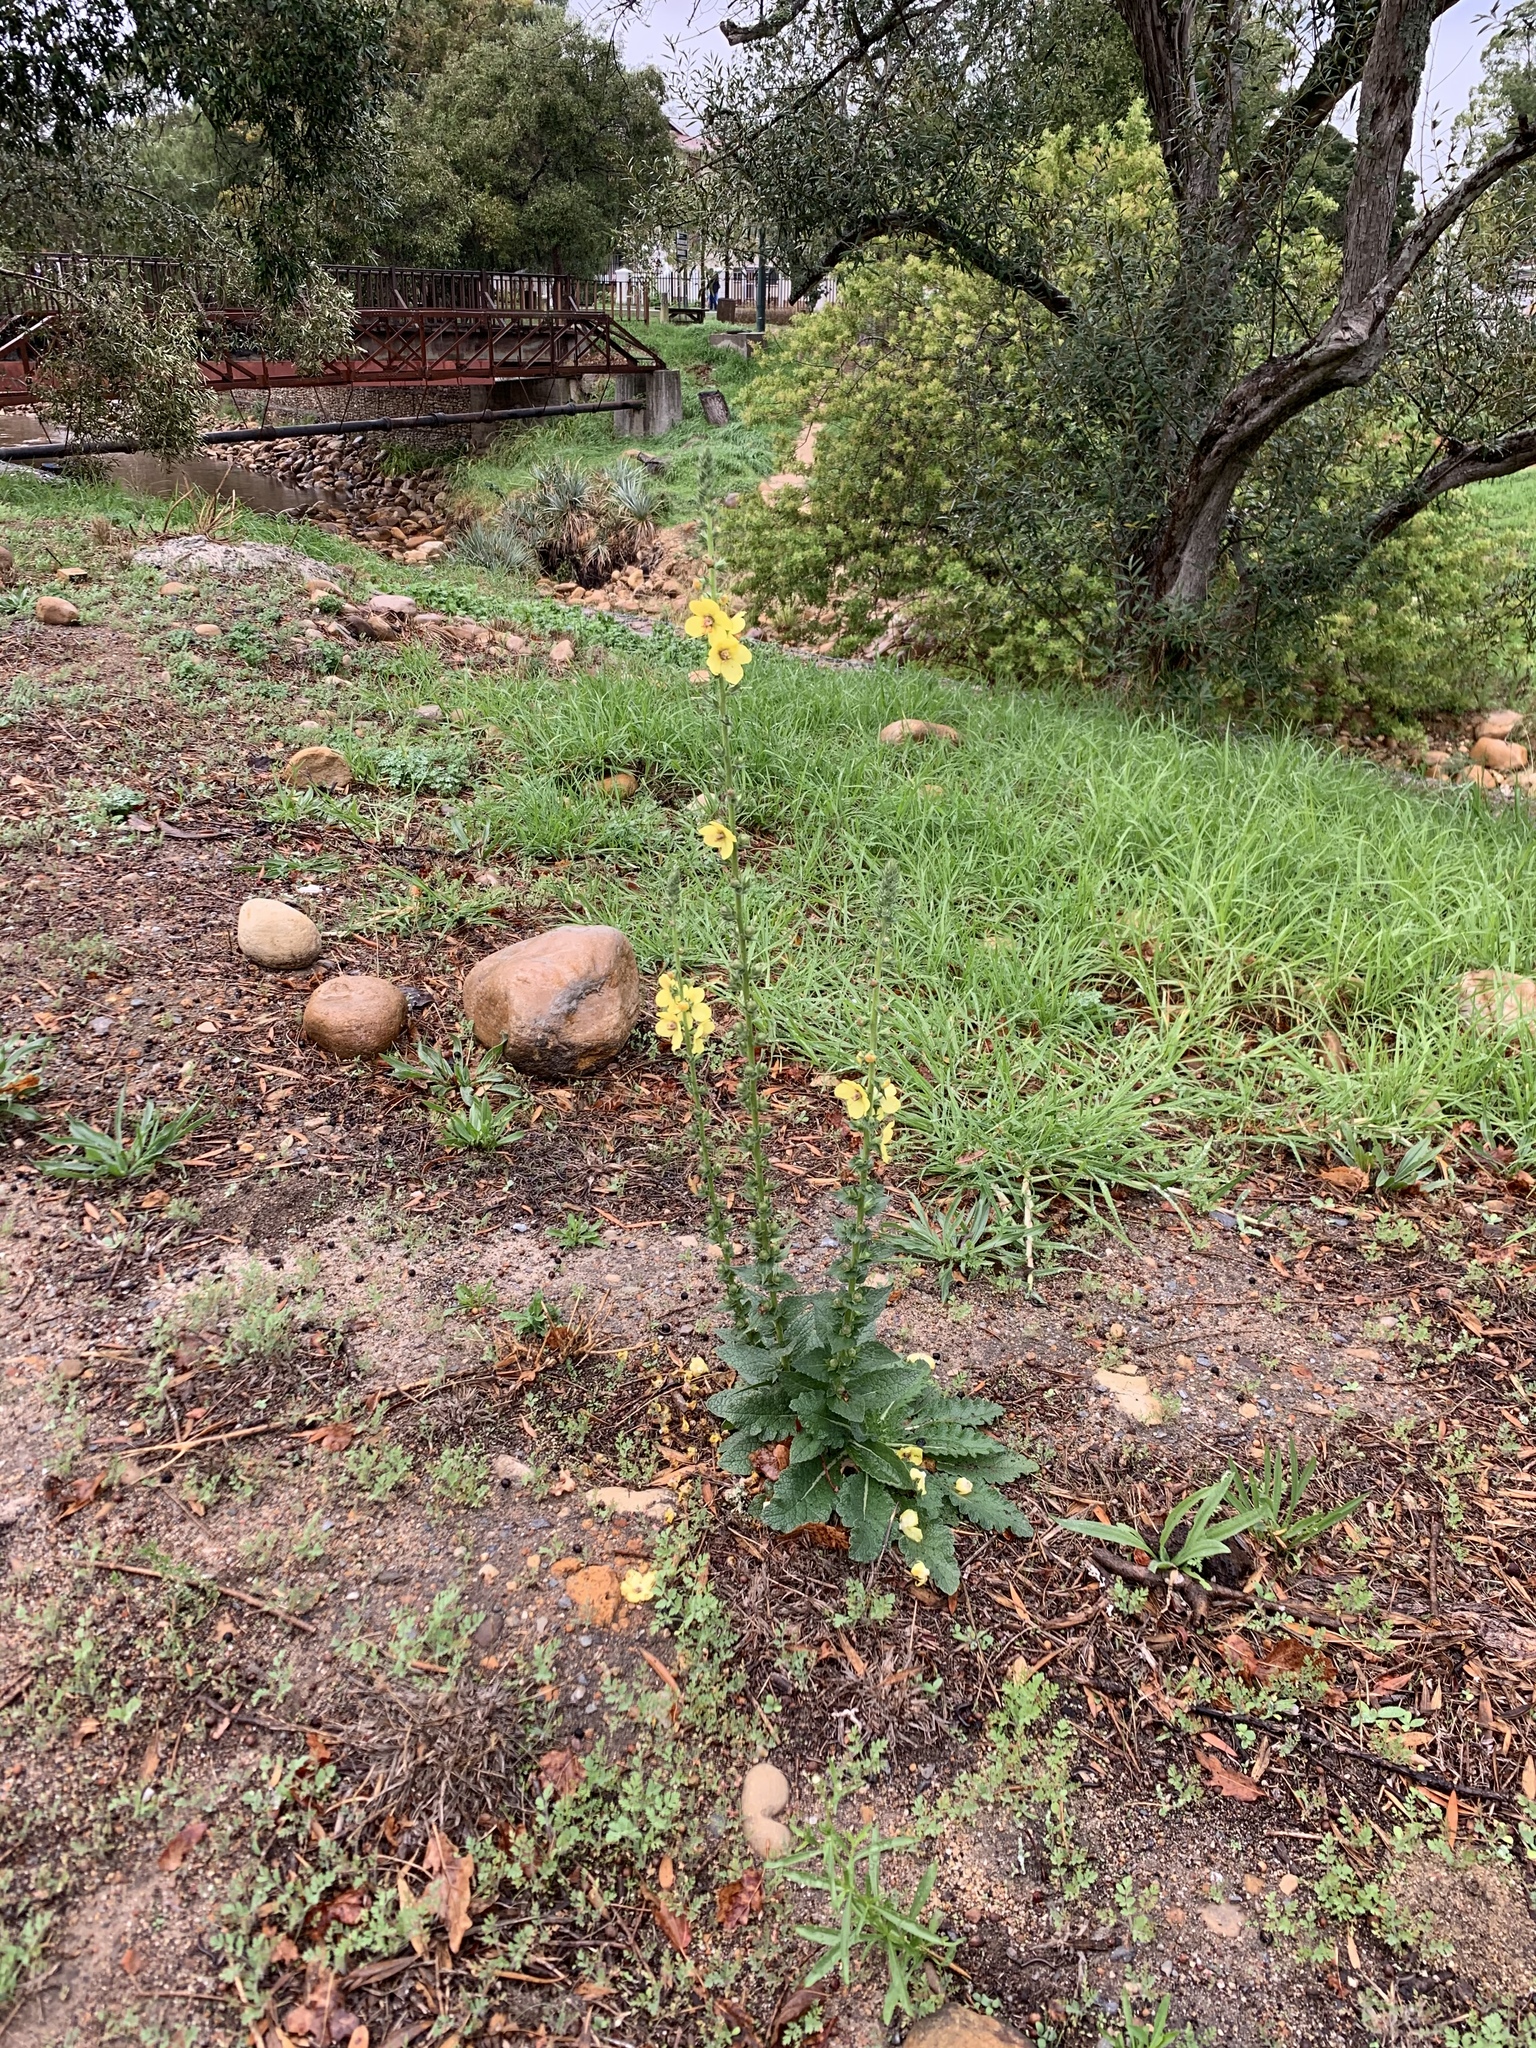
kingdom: Plantae
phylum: Tracheophyta
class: Magnoliopsida
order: Lamiales
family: Scrophulariaceae
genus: Verbascum
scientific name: Verbascum virgatum
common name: Twiggy mullein
